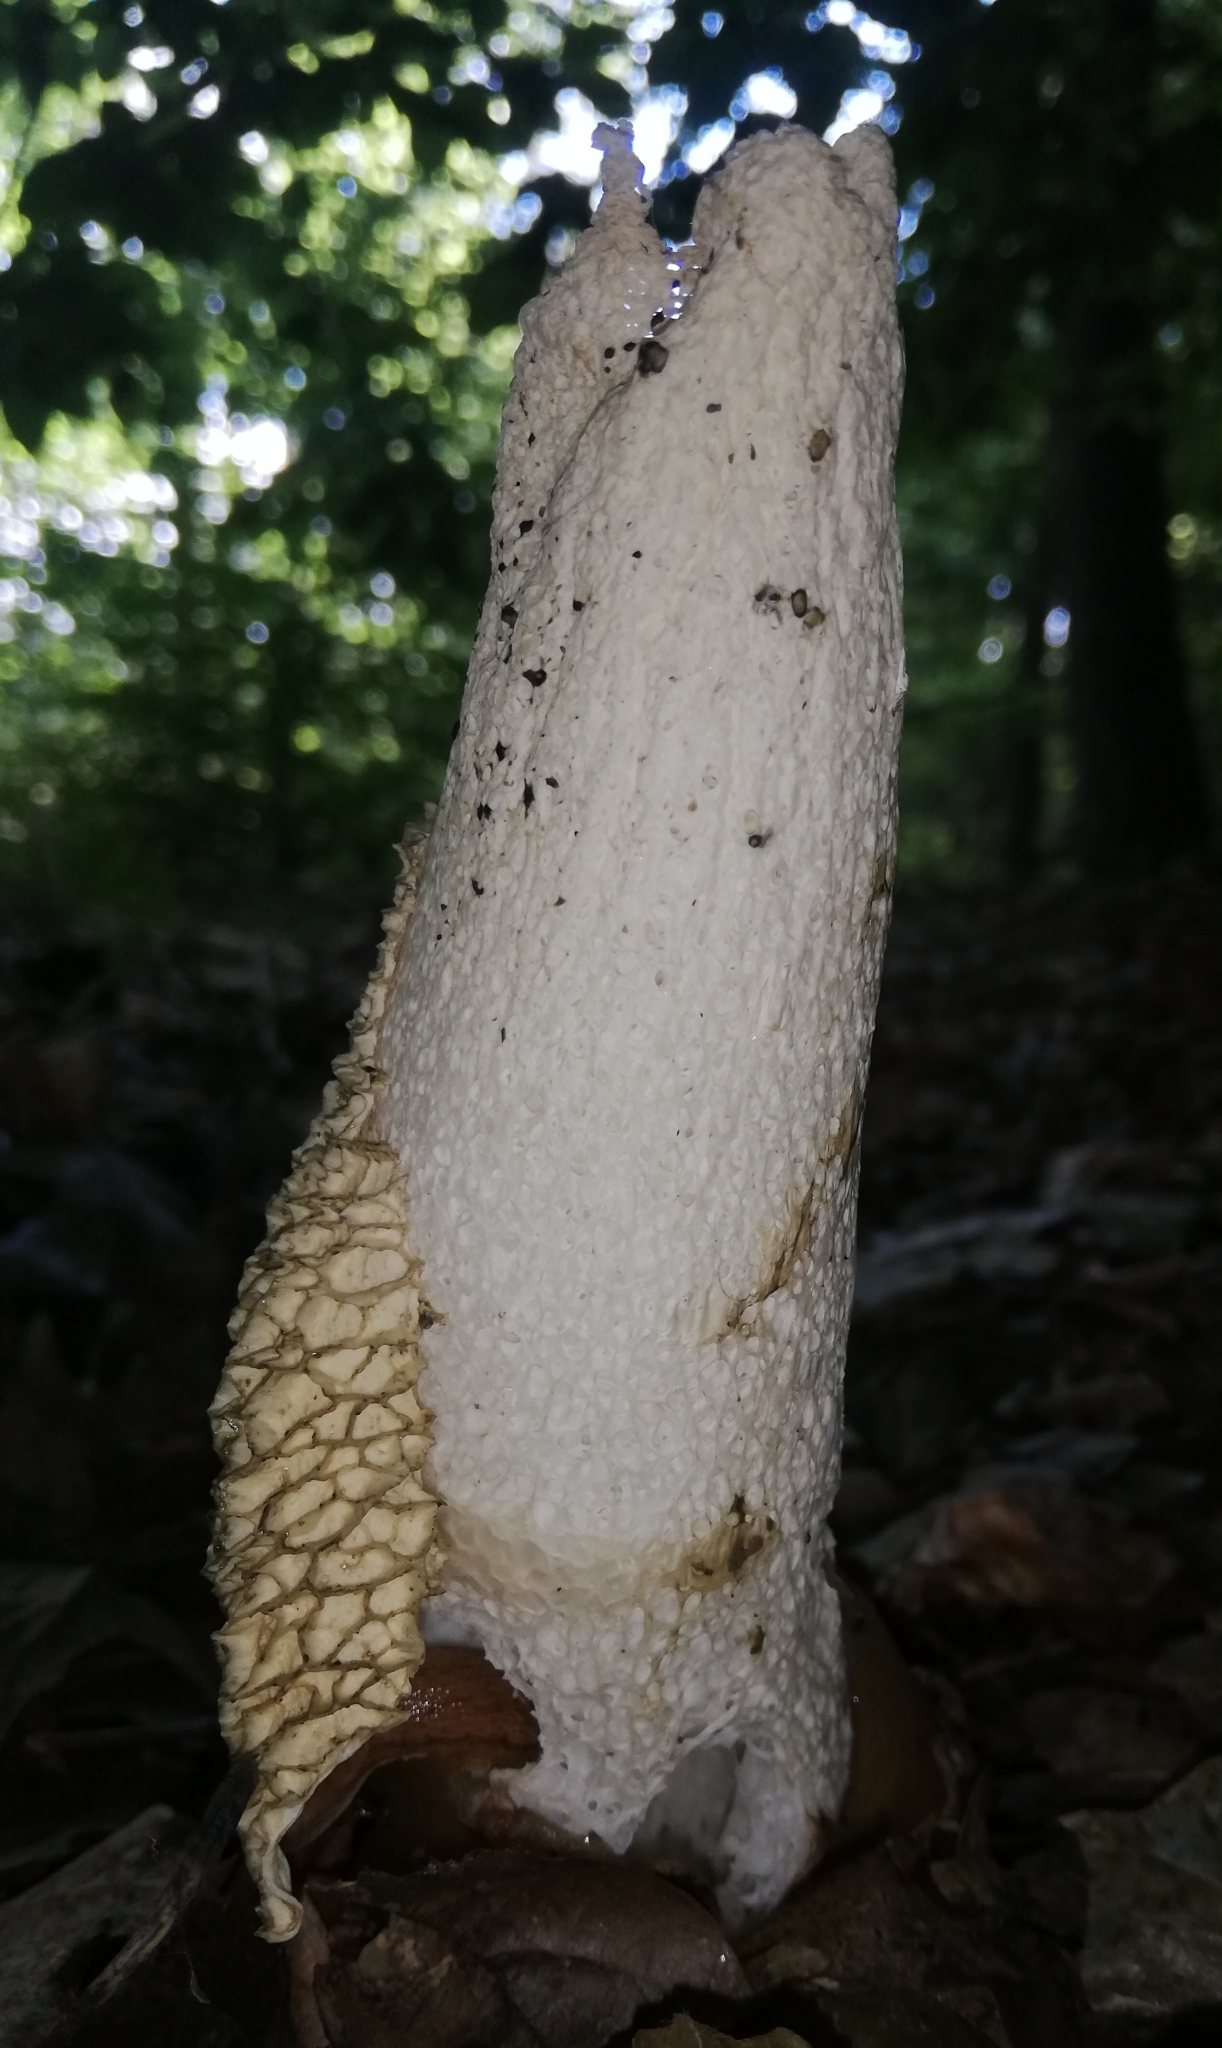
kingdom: Fungi
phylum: Basidiomycota
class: Agaricomycetes
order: Phallales
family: Phallaceae
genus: Phallus
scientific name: Phallus impudicus
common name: Common stinkhorn
